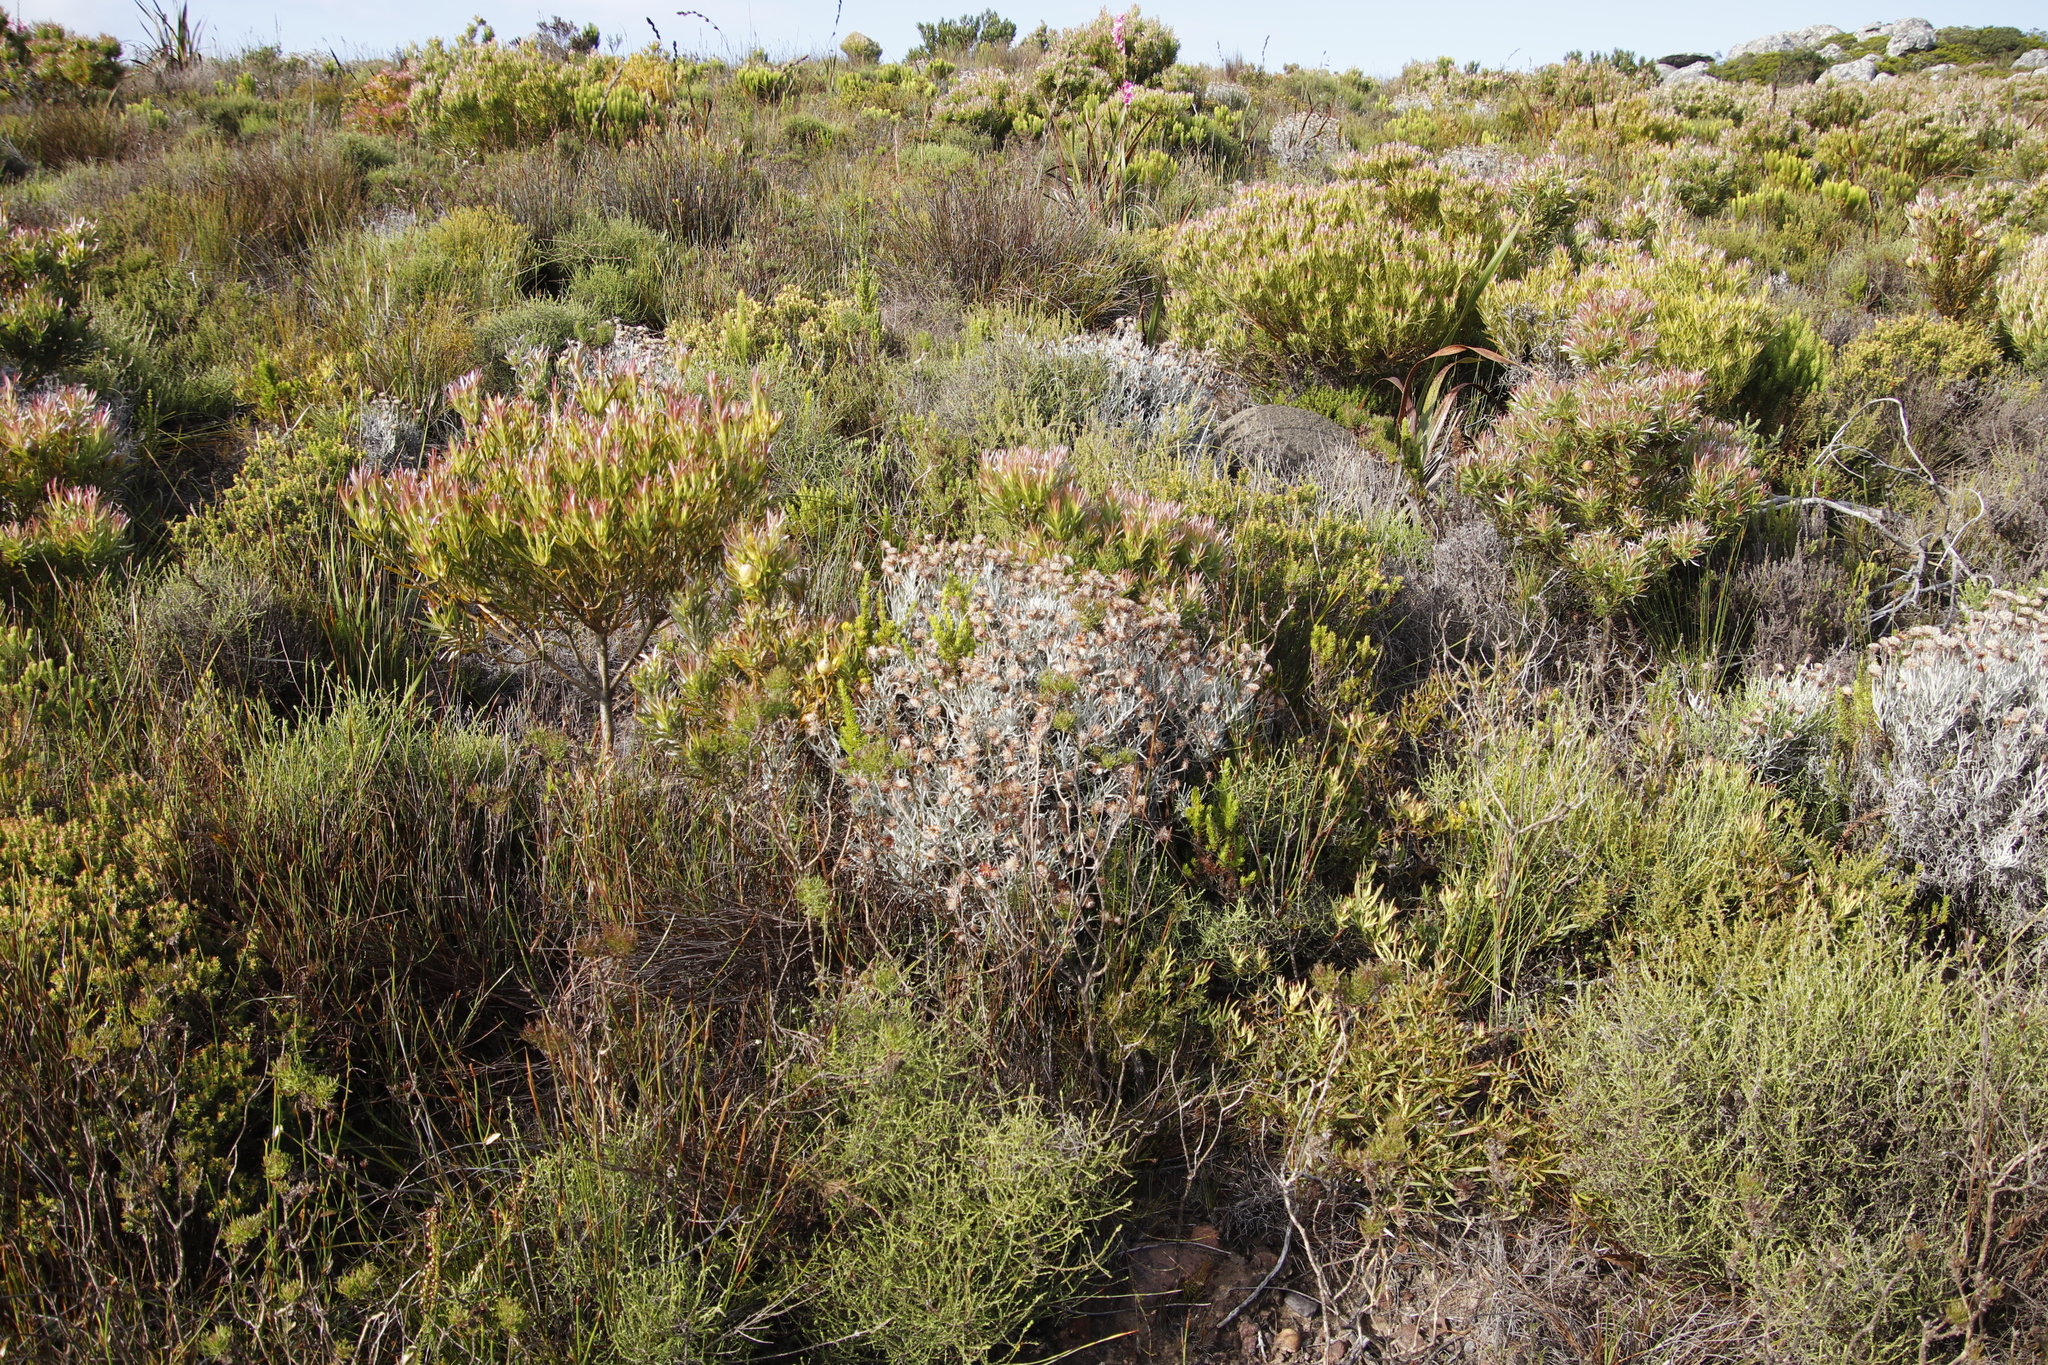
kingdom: Plantae
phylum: Tracheophyta
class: Magnoliopsida
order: Asterales
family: Asteraceae
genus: Syncarpha
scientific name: Syncarpha gnaphaloides
